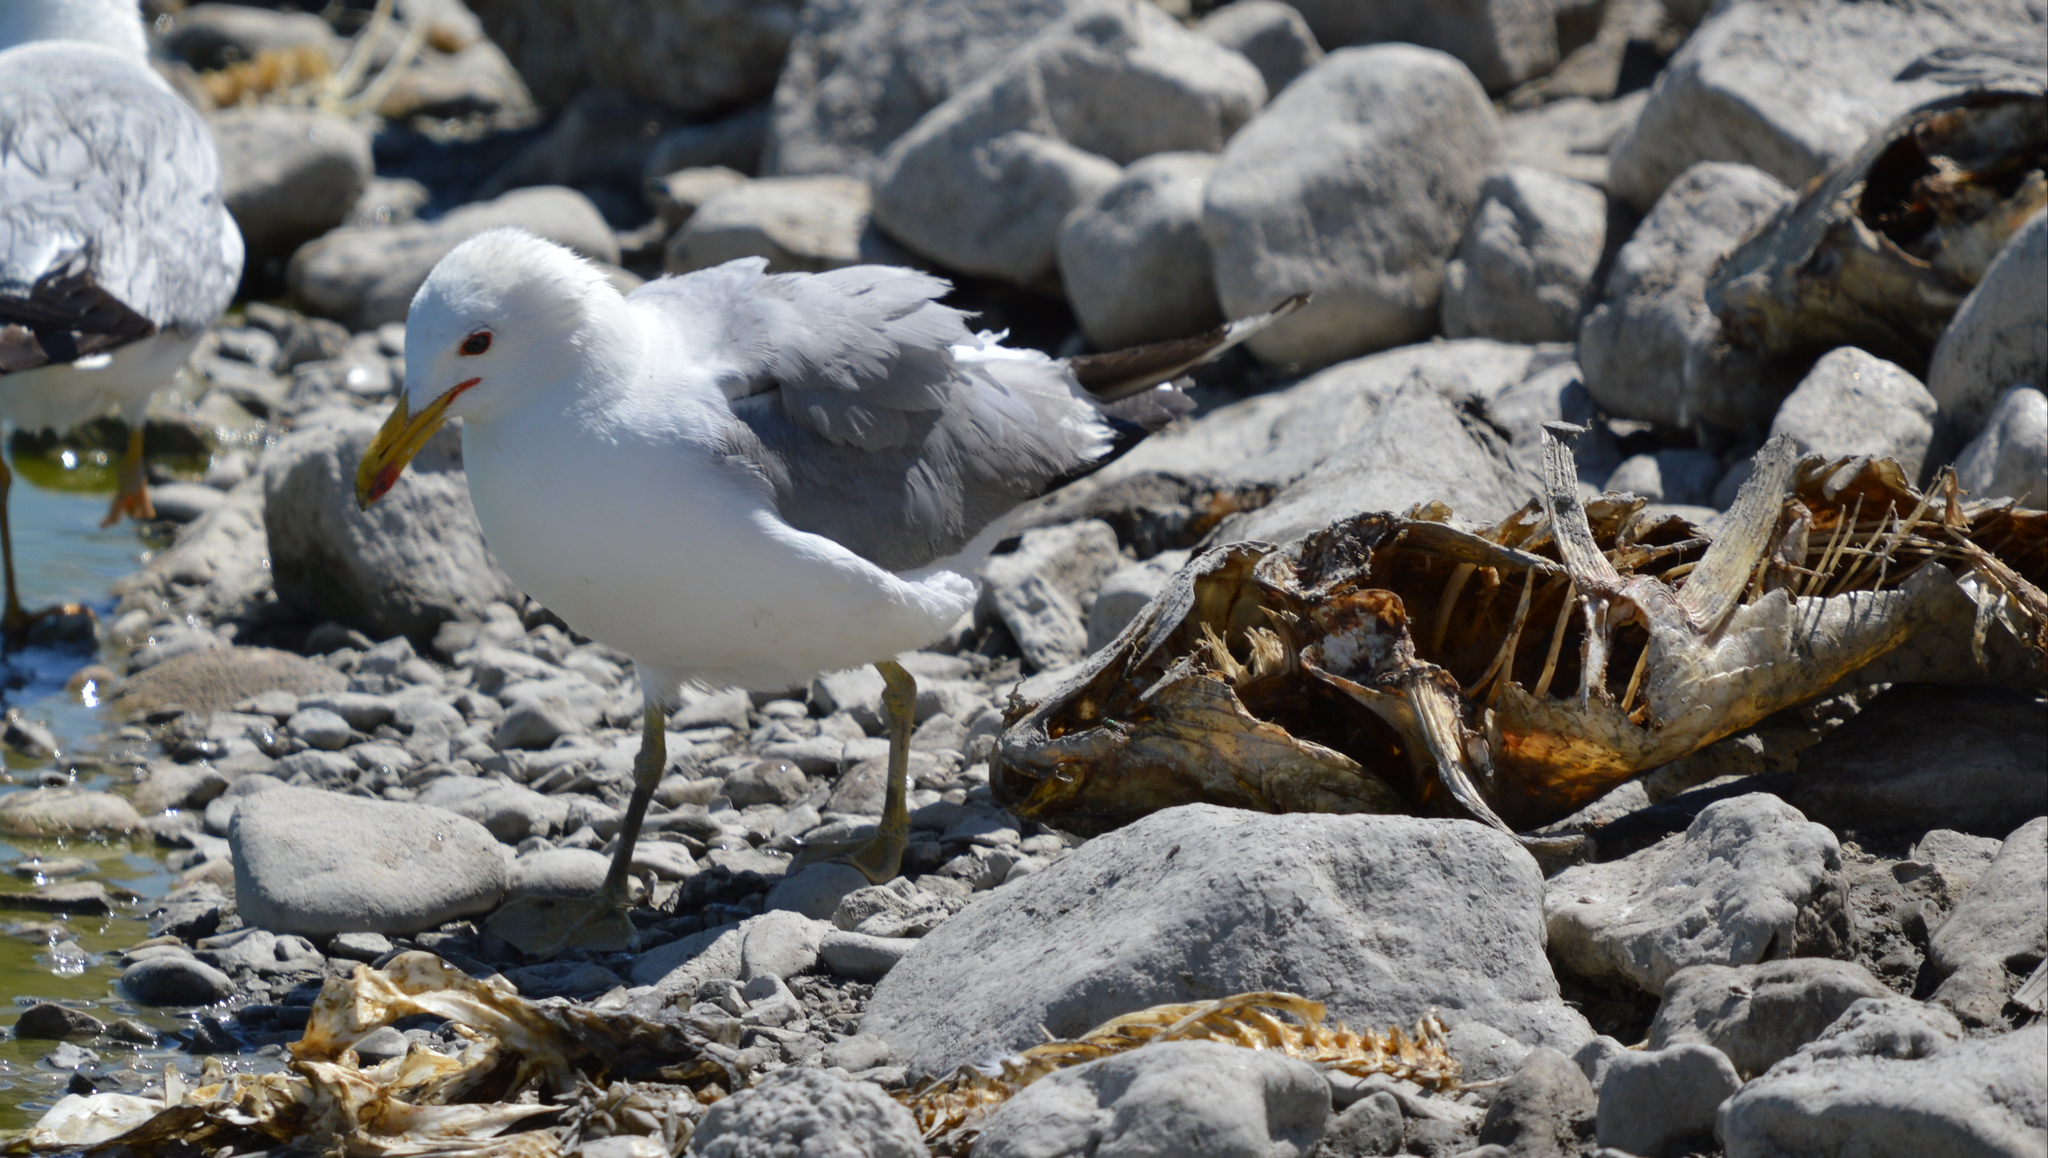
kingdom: Animalia
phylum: Chordata
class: Aves
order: Charadriiformes
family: Laridae
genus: Larus
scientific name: Larus californicus
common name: California gull
